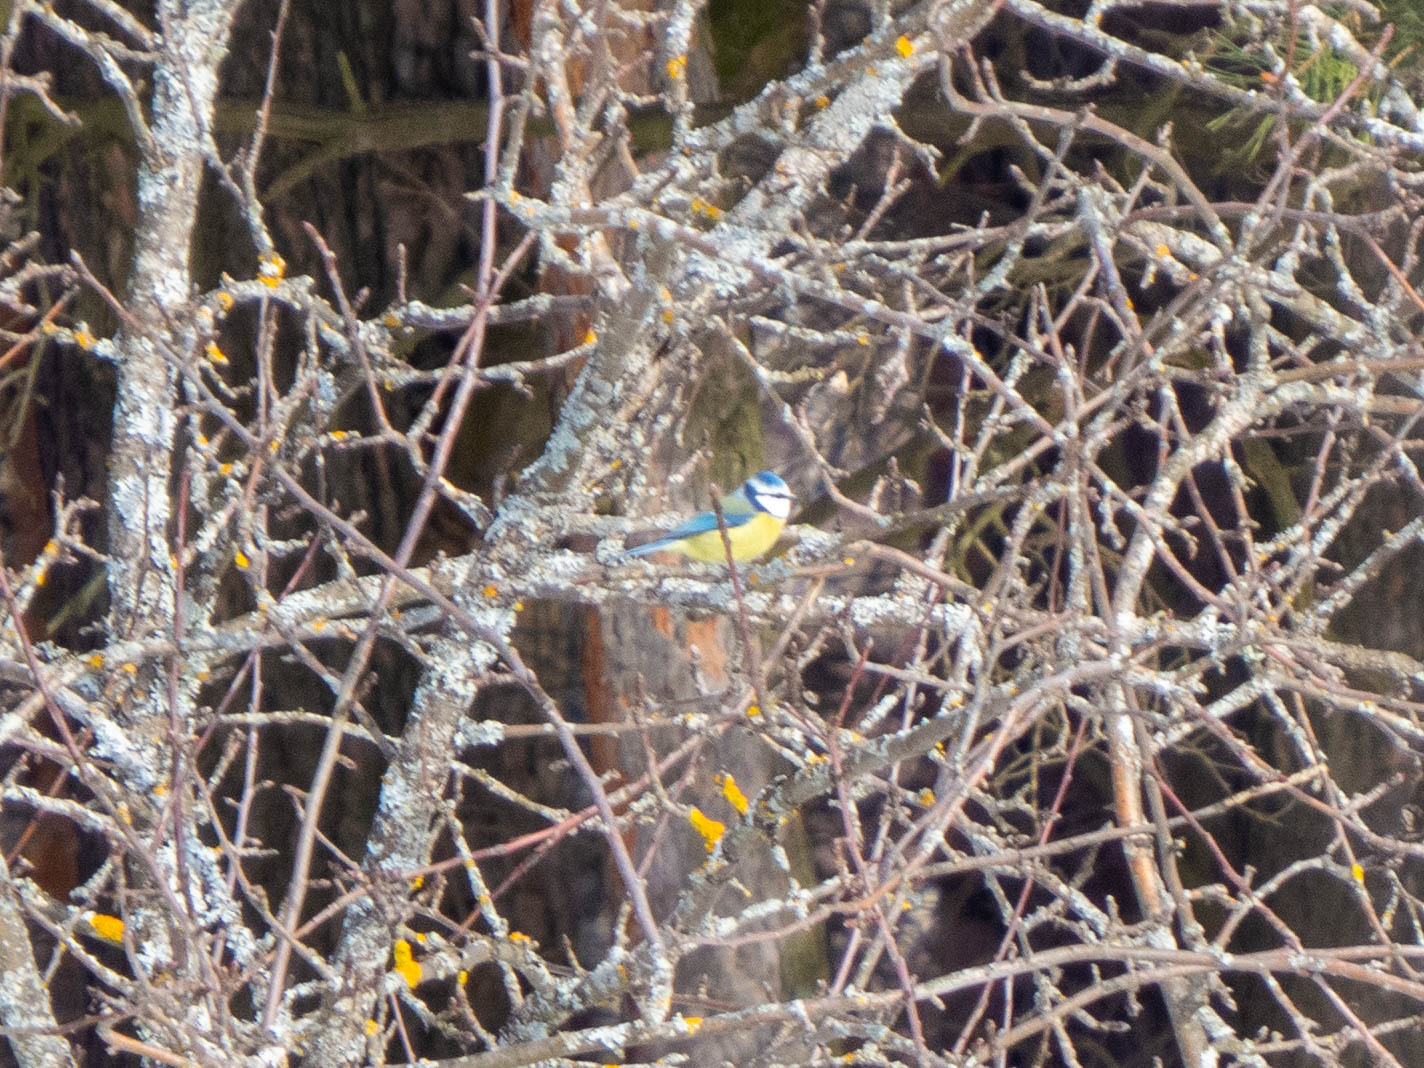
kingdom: Animalia
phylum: Chordata
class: Aves
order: Passeriformes
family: Paridae
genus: Cyanistes
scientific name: Cyanistes caeruleus
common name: Eurasian blue tit
